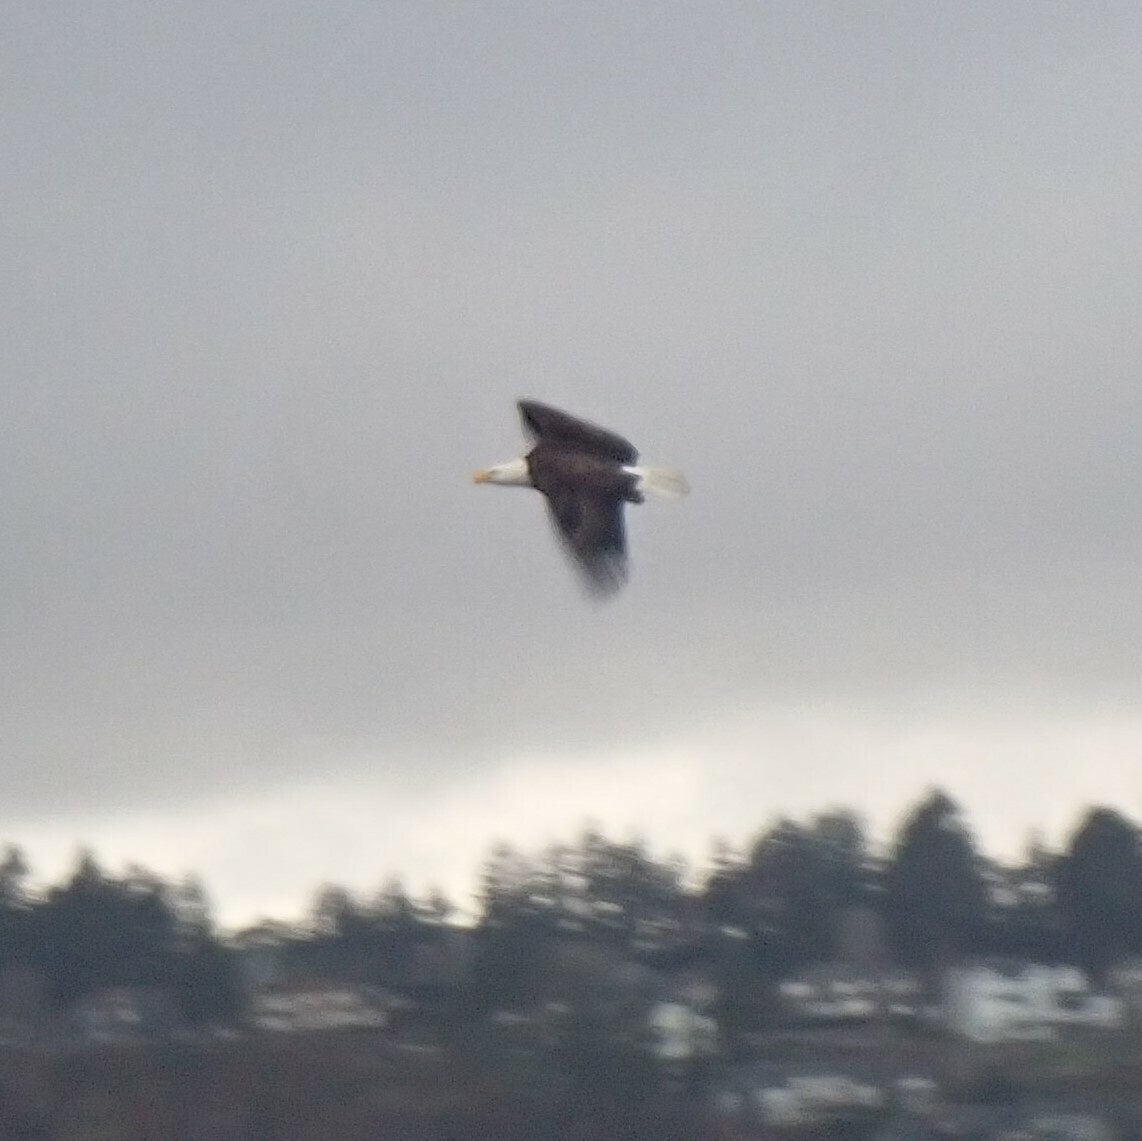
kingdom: Animalia
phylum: Chordata
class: Aves
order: Accipitriformes
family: Accipitridae
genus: Haliaeetus
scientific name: Haliaeetus leucocephalus
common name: Bald eagle
